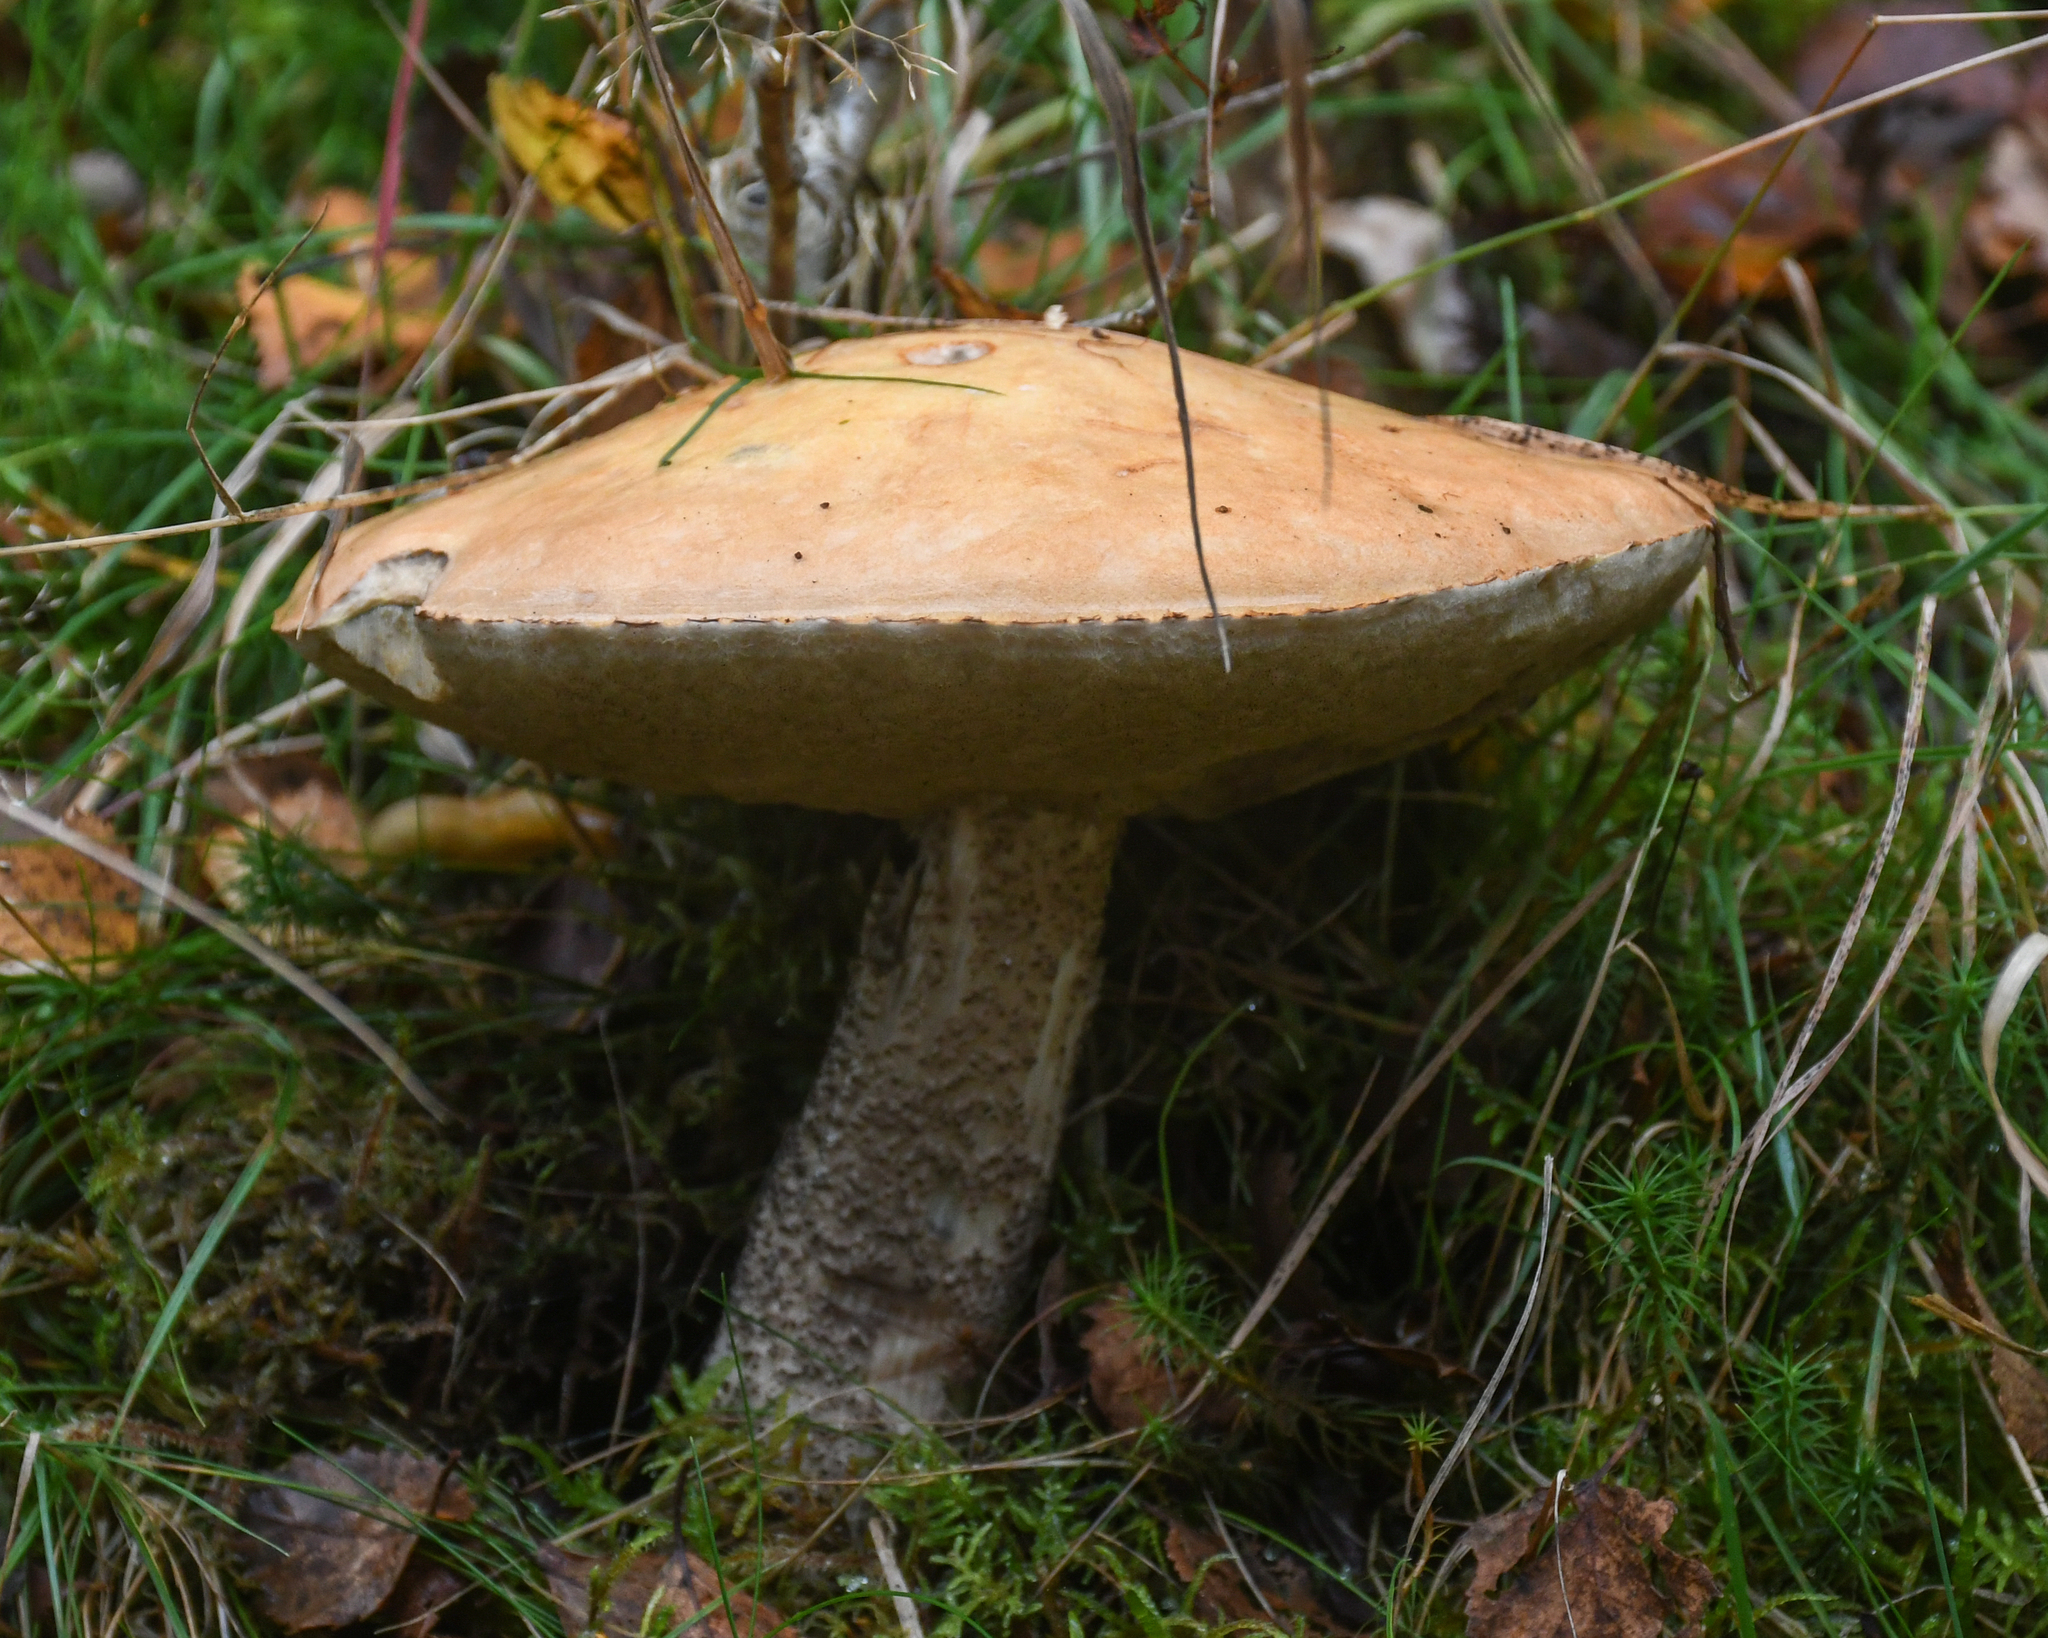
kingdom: Fungi
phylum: Basidiomycota
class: Agaricomycetes
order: Boletales
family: Boletaceae
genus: Leccinum
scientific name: Leccinum versipelle
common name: Orange birch bolete
